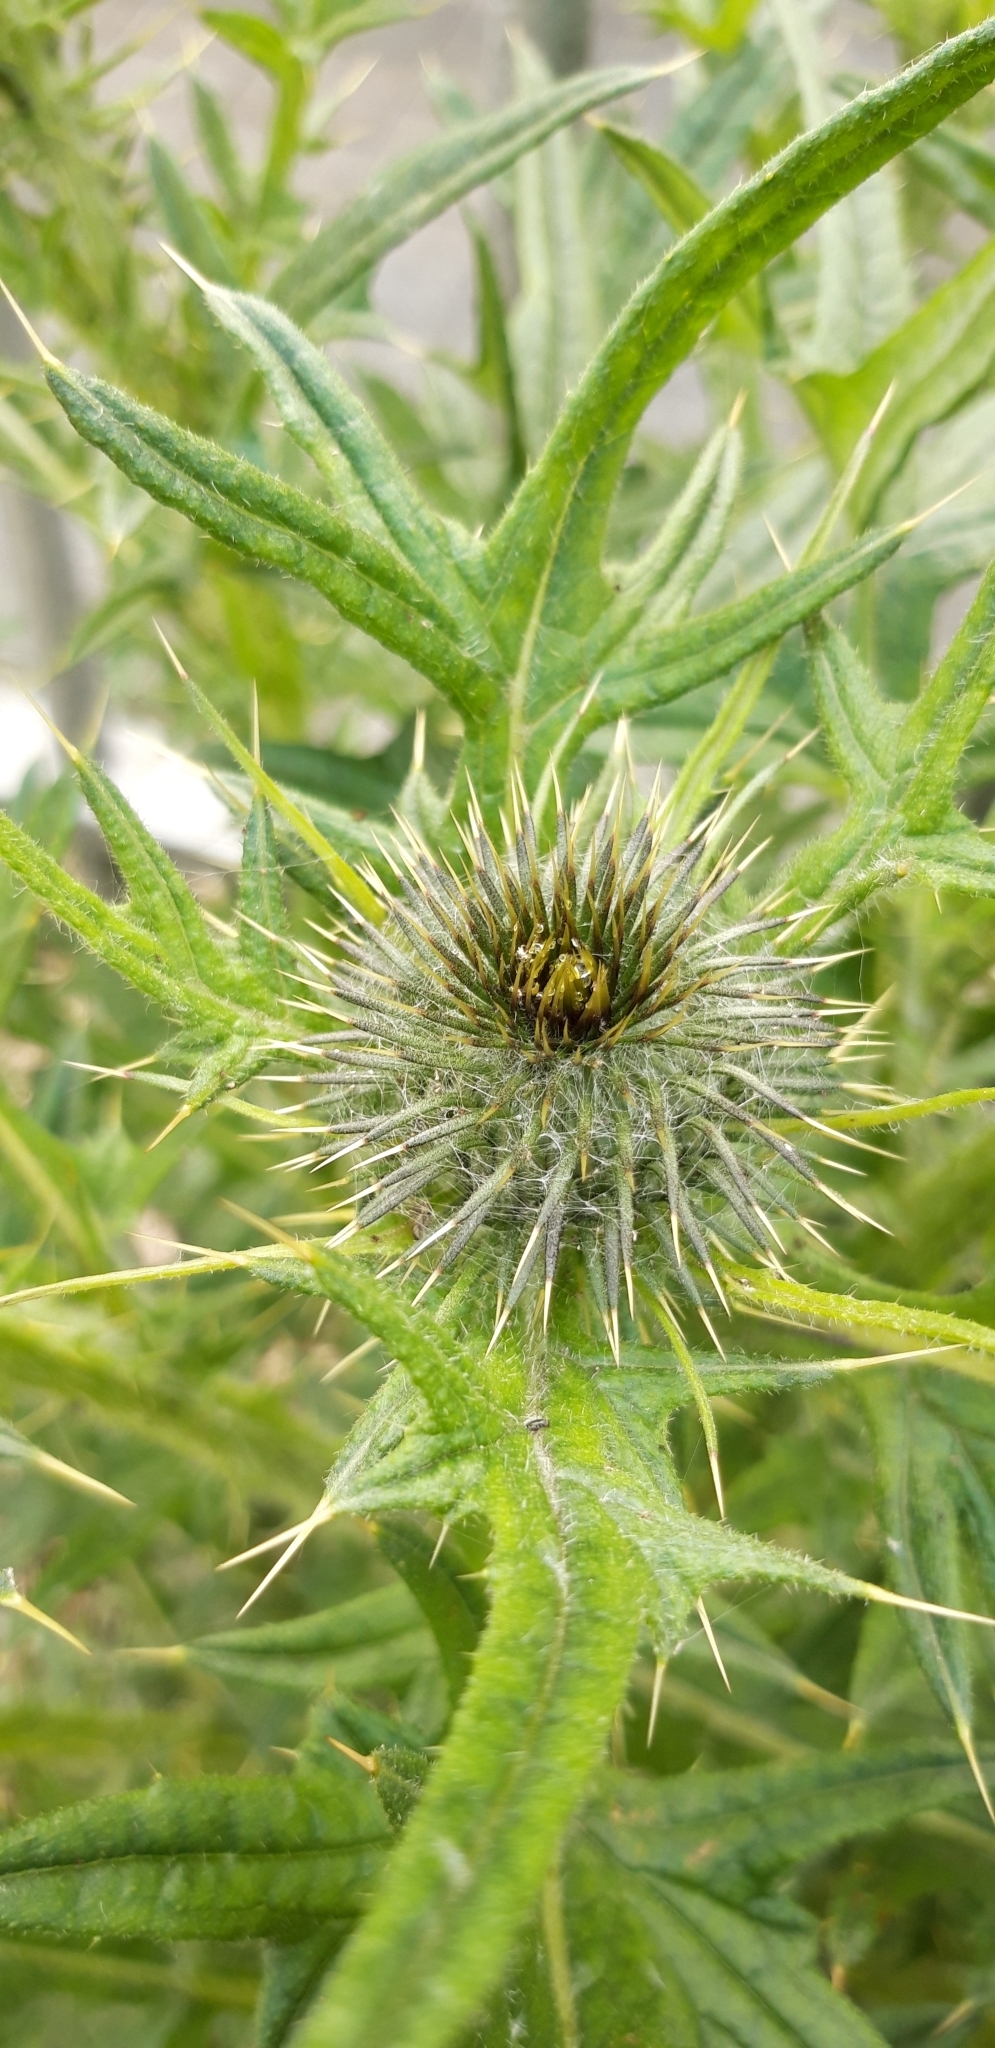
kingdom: Plantae
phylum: Tracheophyta
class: Magnoliopsida
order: Asterales
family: Asteraceae
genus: Cirsium
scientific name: Cirsium vulgare
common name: Bull thistle
